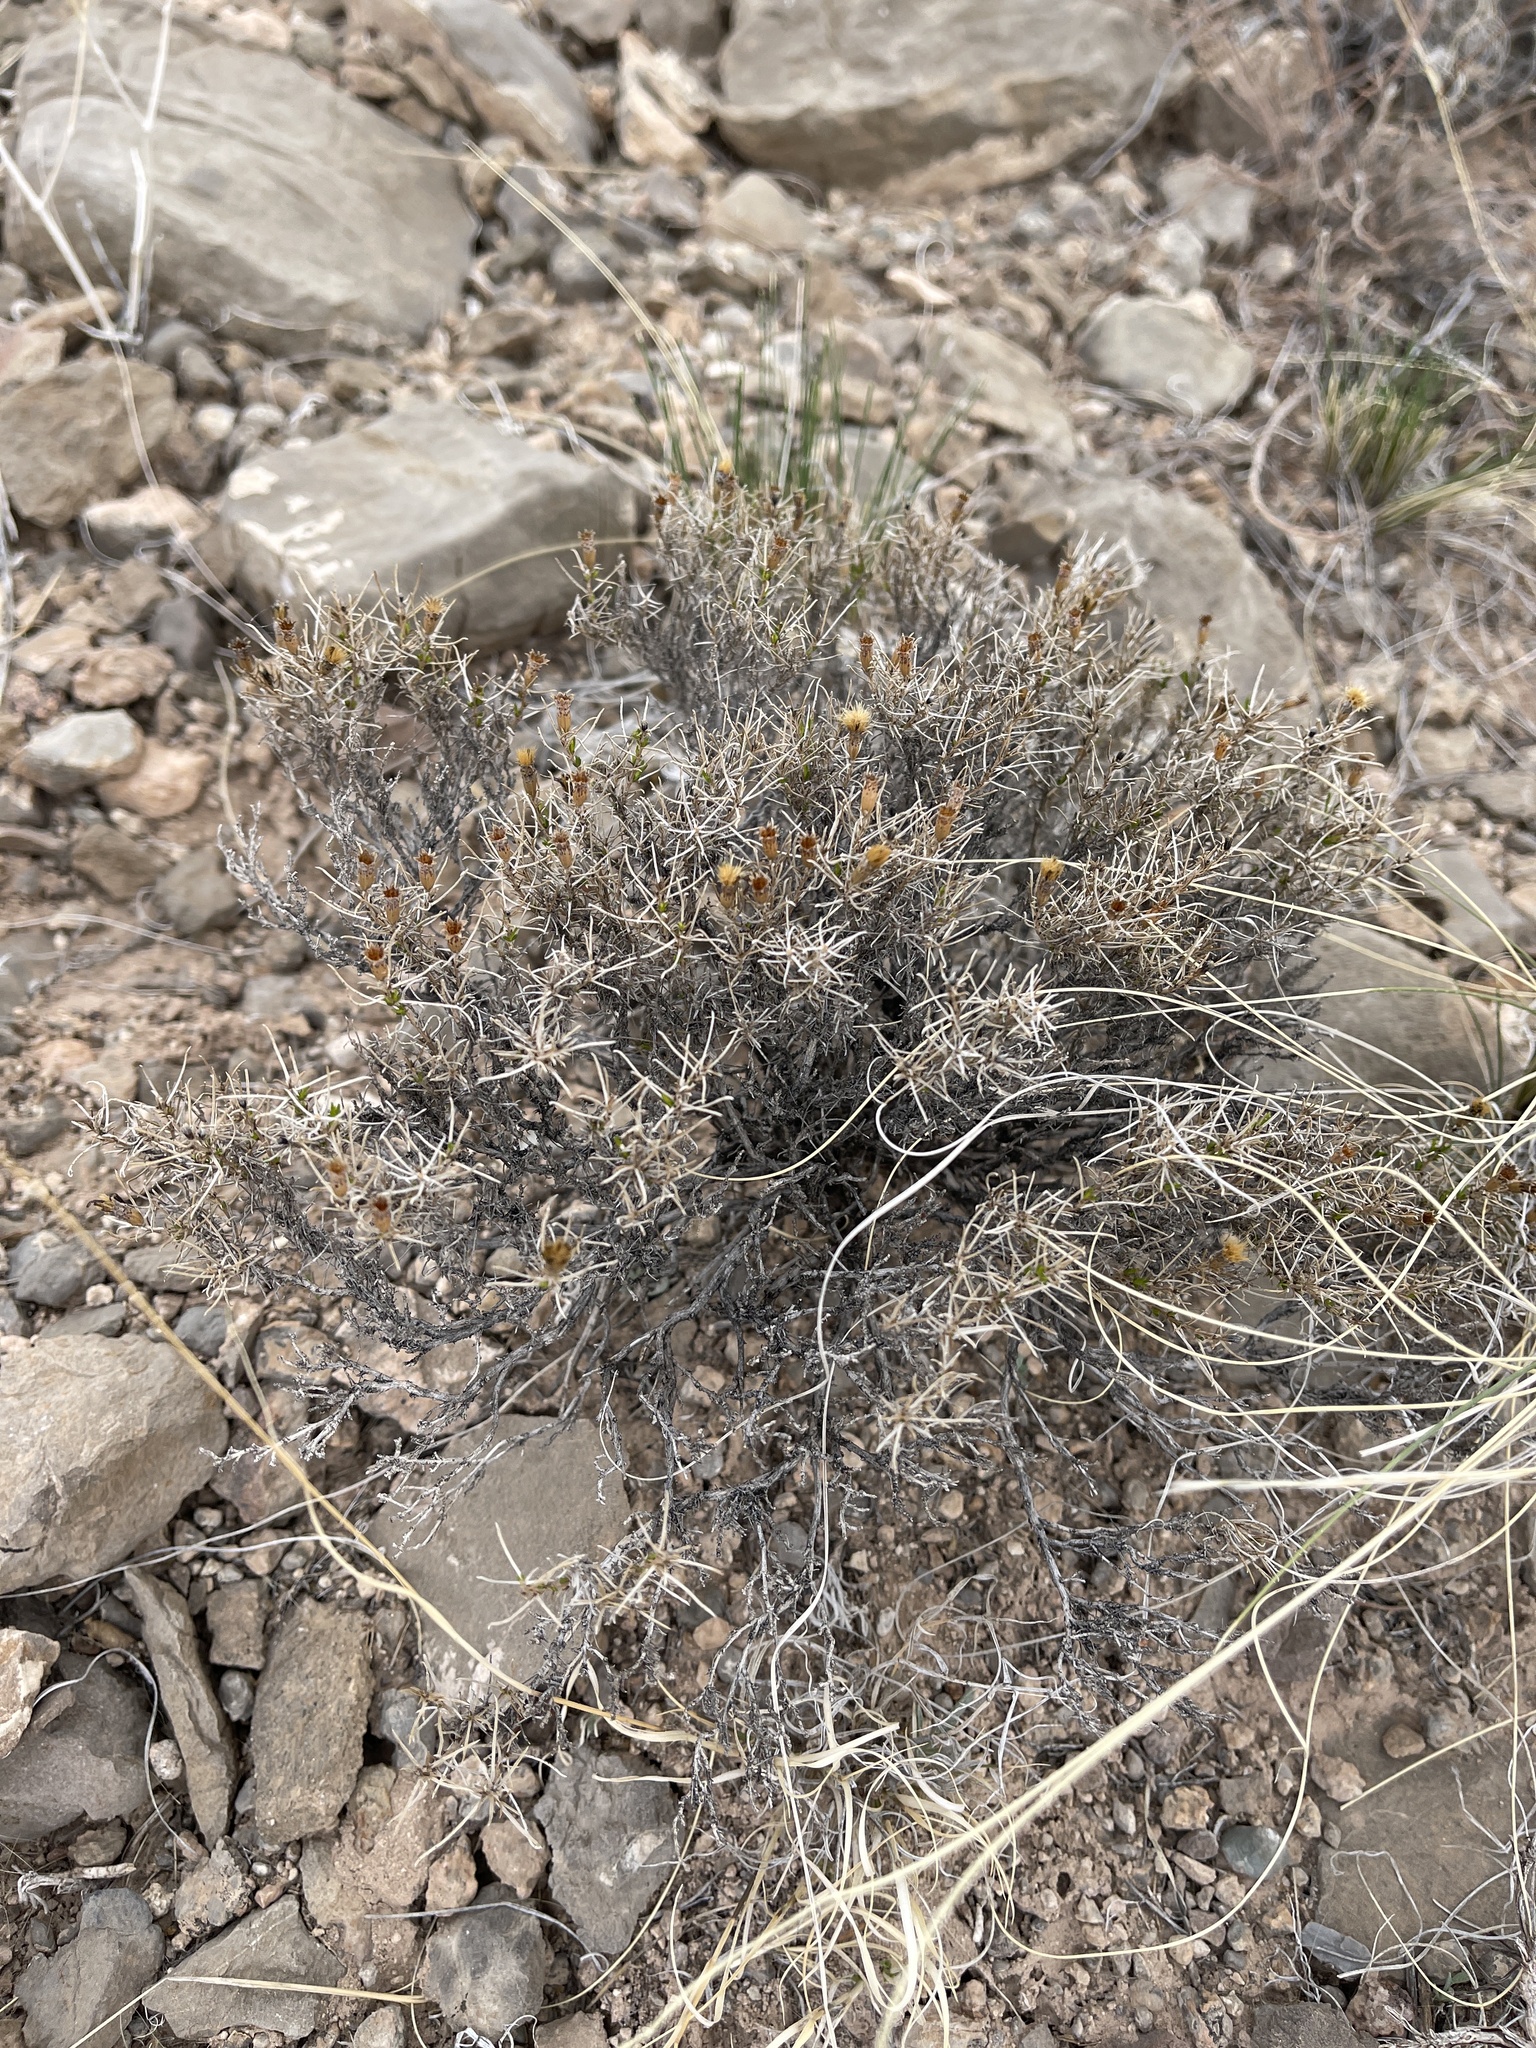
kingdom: Plantae
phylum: Tracheophyta
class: Magnoliopsida
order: Asterales
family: Asteraceae
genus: Thymophylla
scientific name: Thymophylla acerosa
